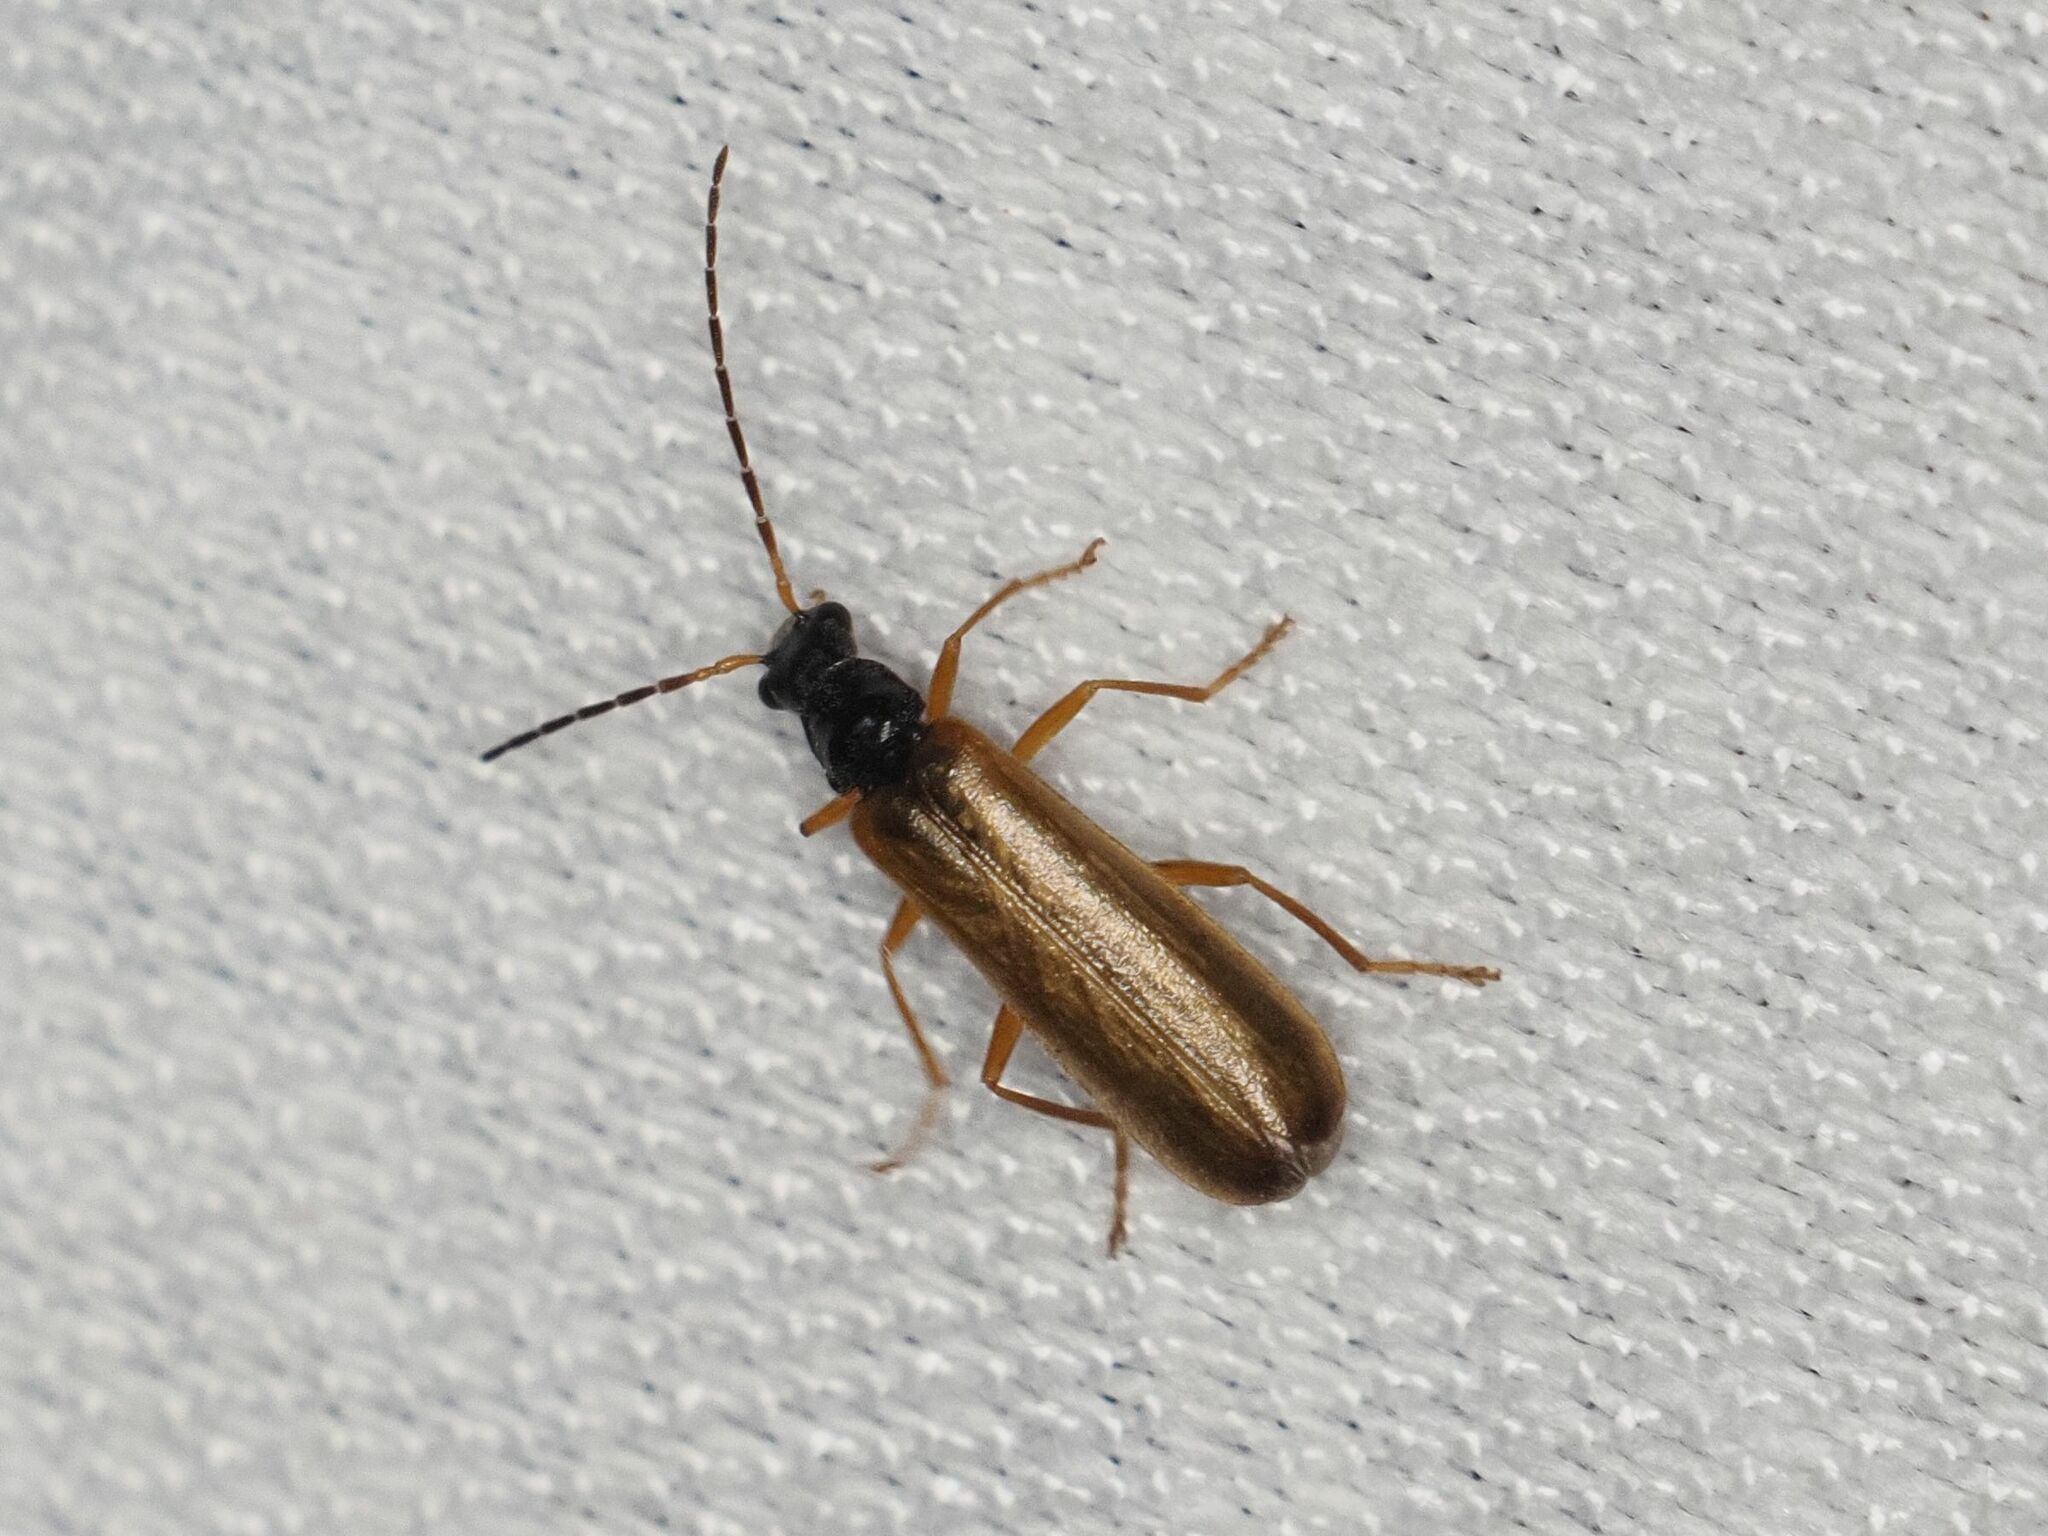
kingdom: Animalia
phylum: Arthropoda
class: Insecta
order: Coleoptera
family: Cantharidae
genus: Rhagonycha
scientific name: Rhagonycha lignosa
